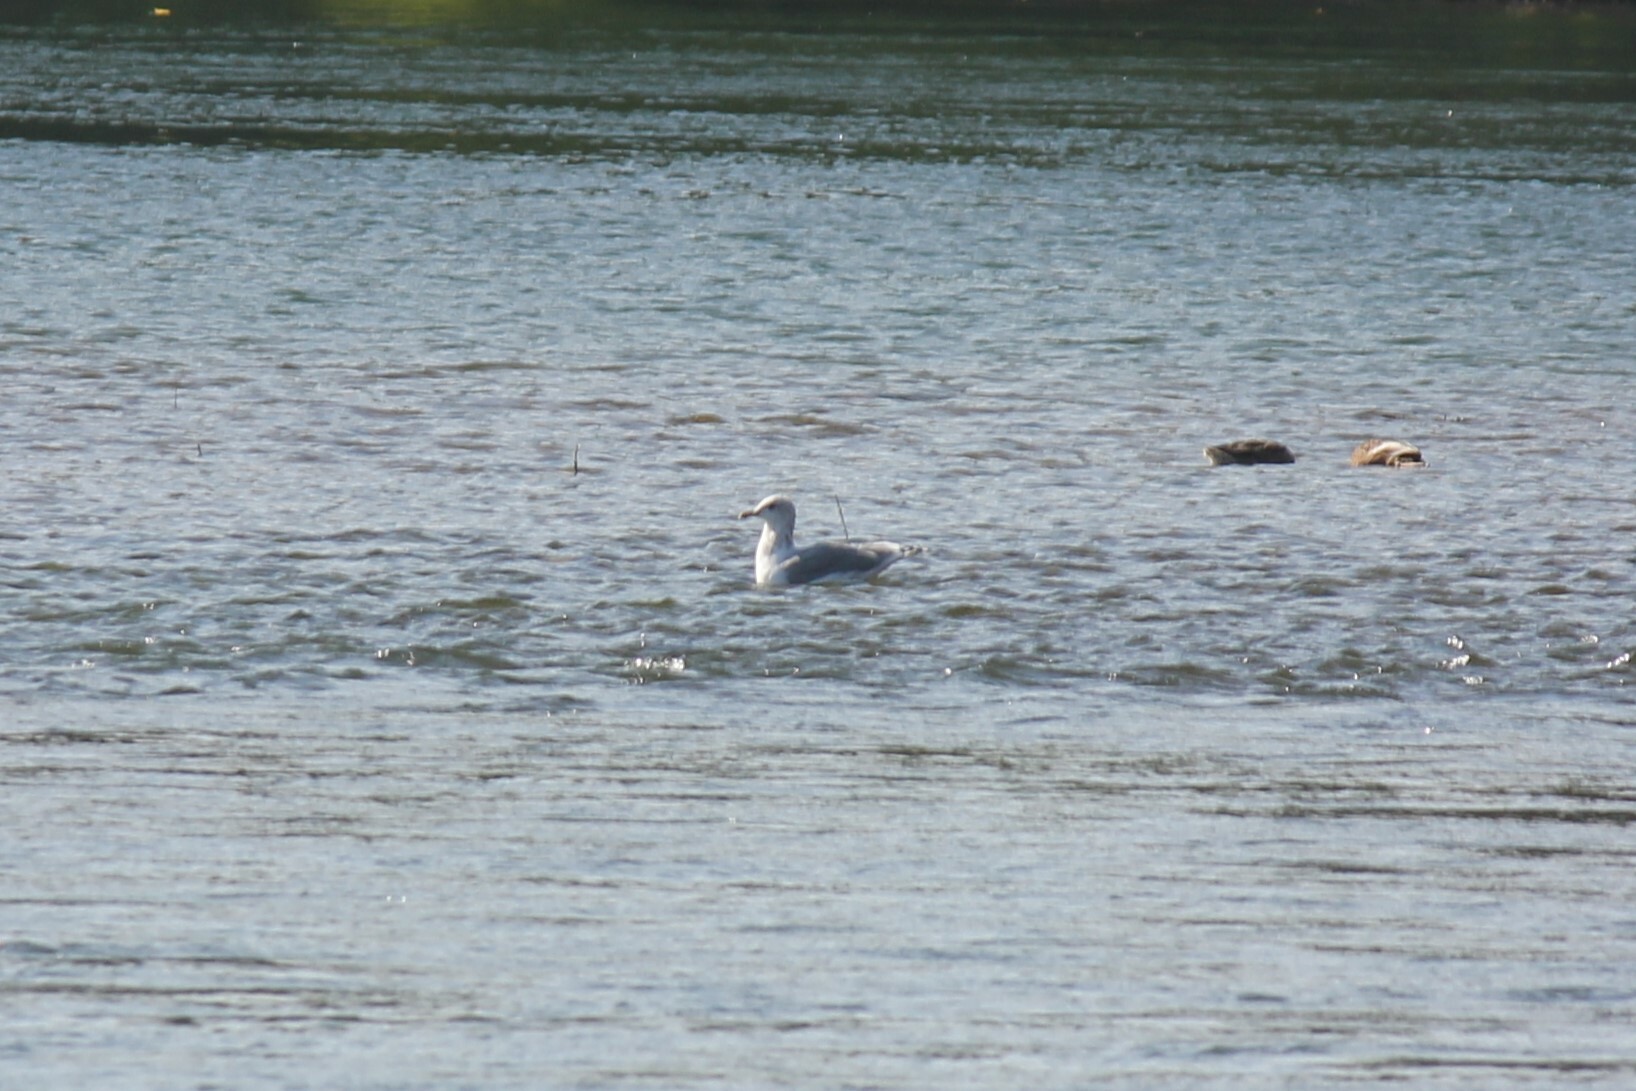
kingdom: Animalia
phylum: Chordata
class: Aves
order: Charadriiformes
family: Laridae
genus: Larus
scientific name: Larus californicus
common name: California gull
